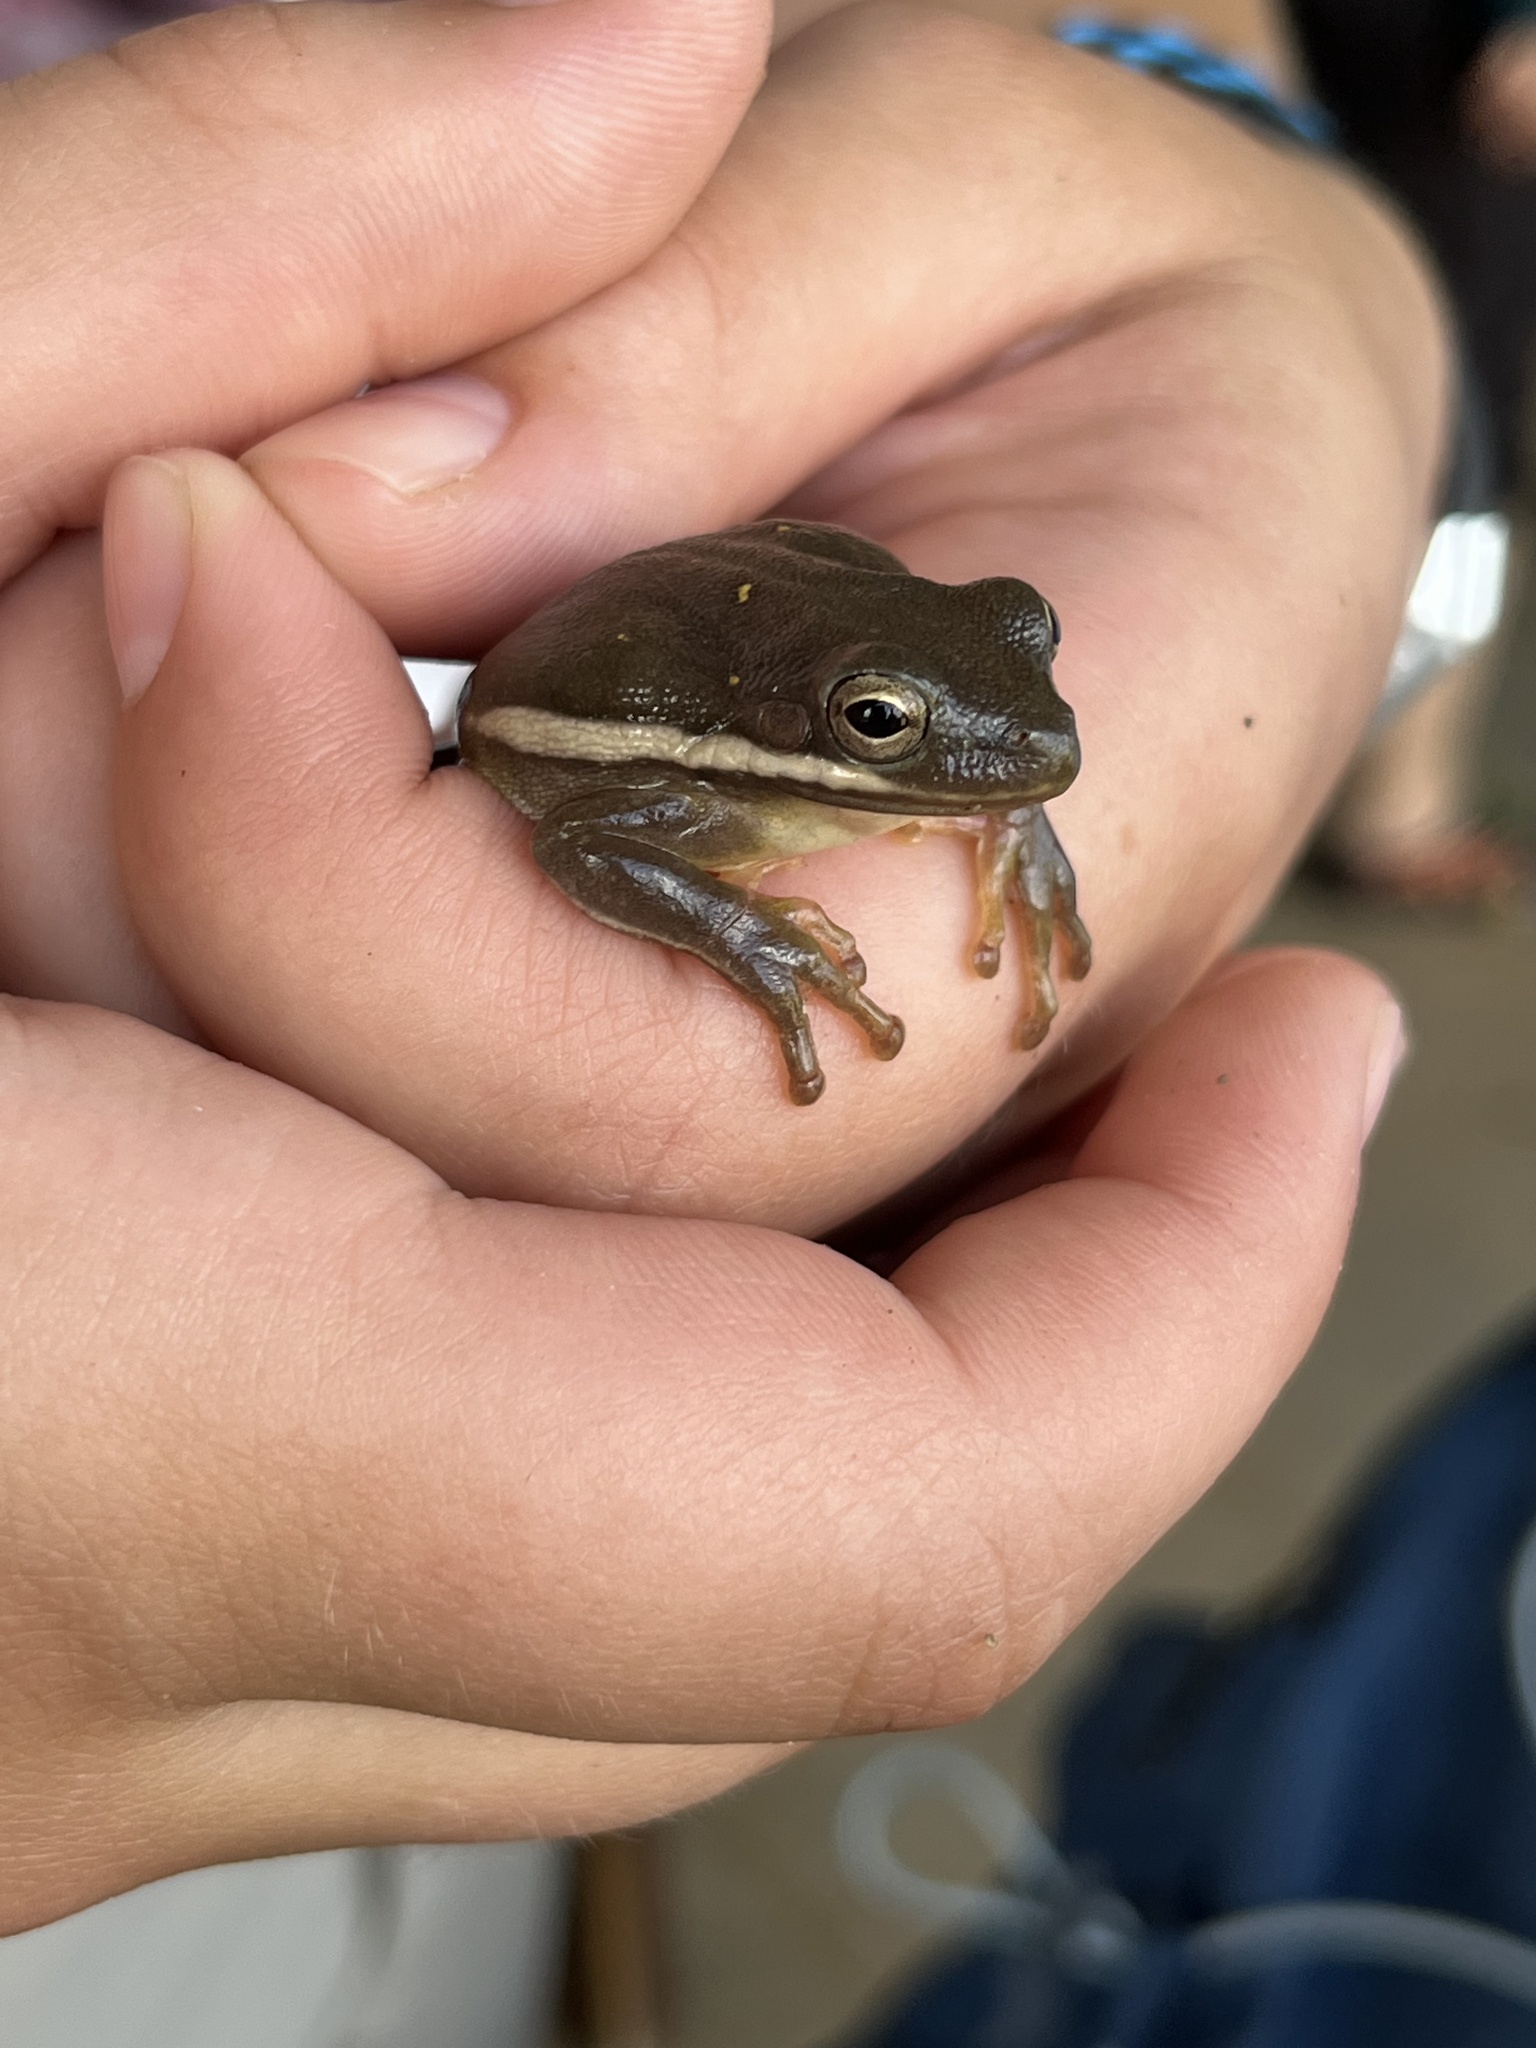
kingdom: Animalia
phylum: Chordata
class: Amphibia
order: Anura
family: Hylidae
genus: Dryophytes
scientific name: Dryophytes cinereus
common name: Green treefrog
